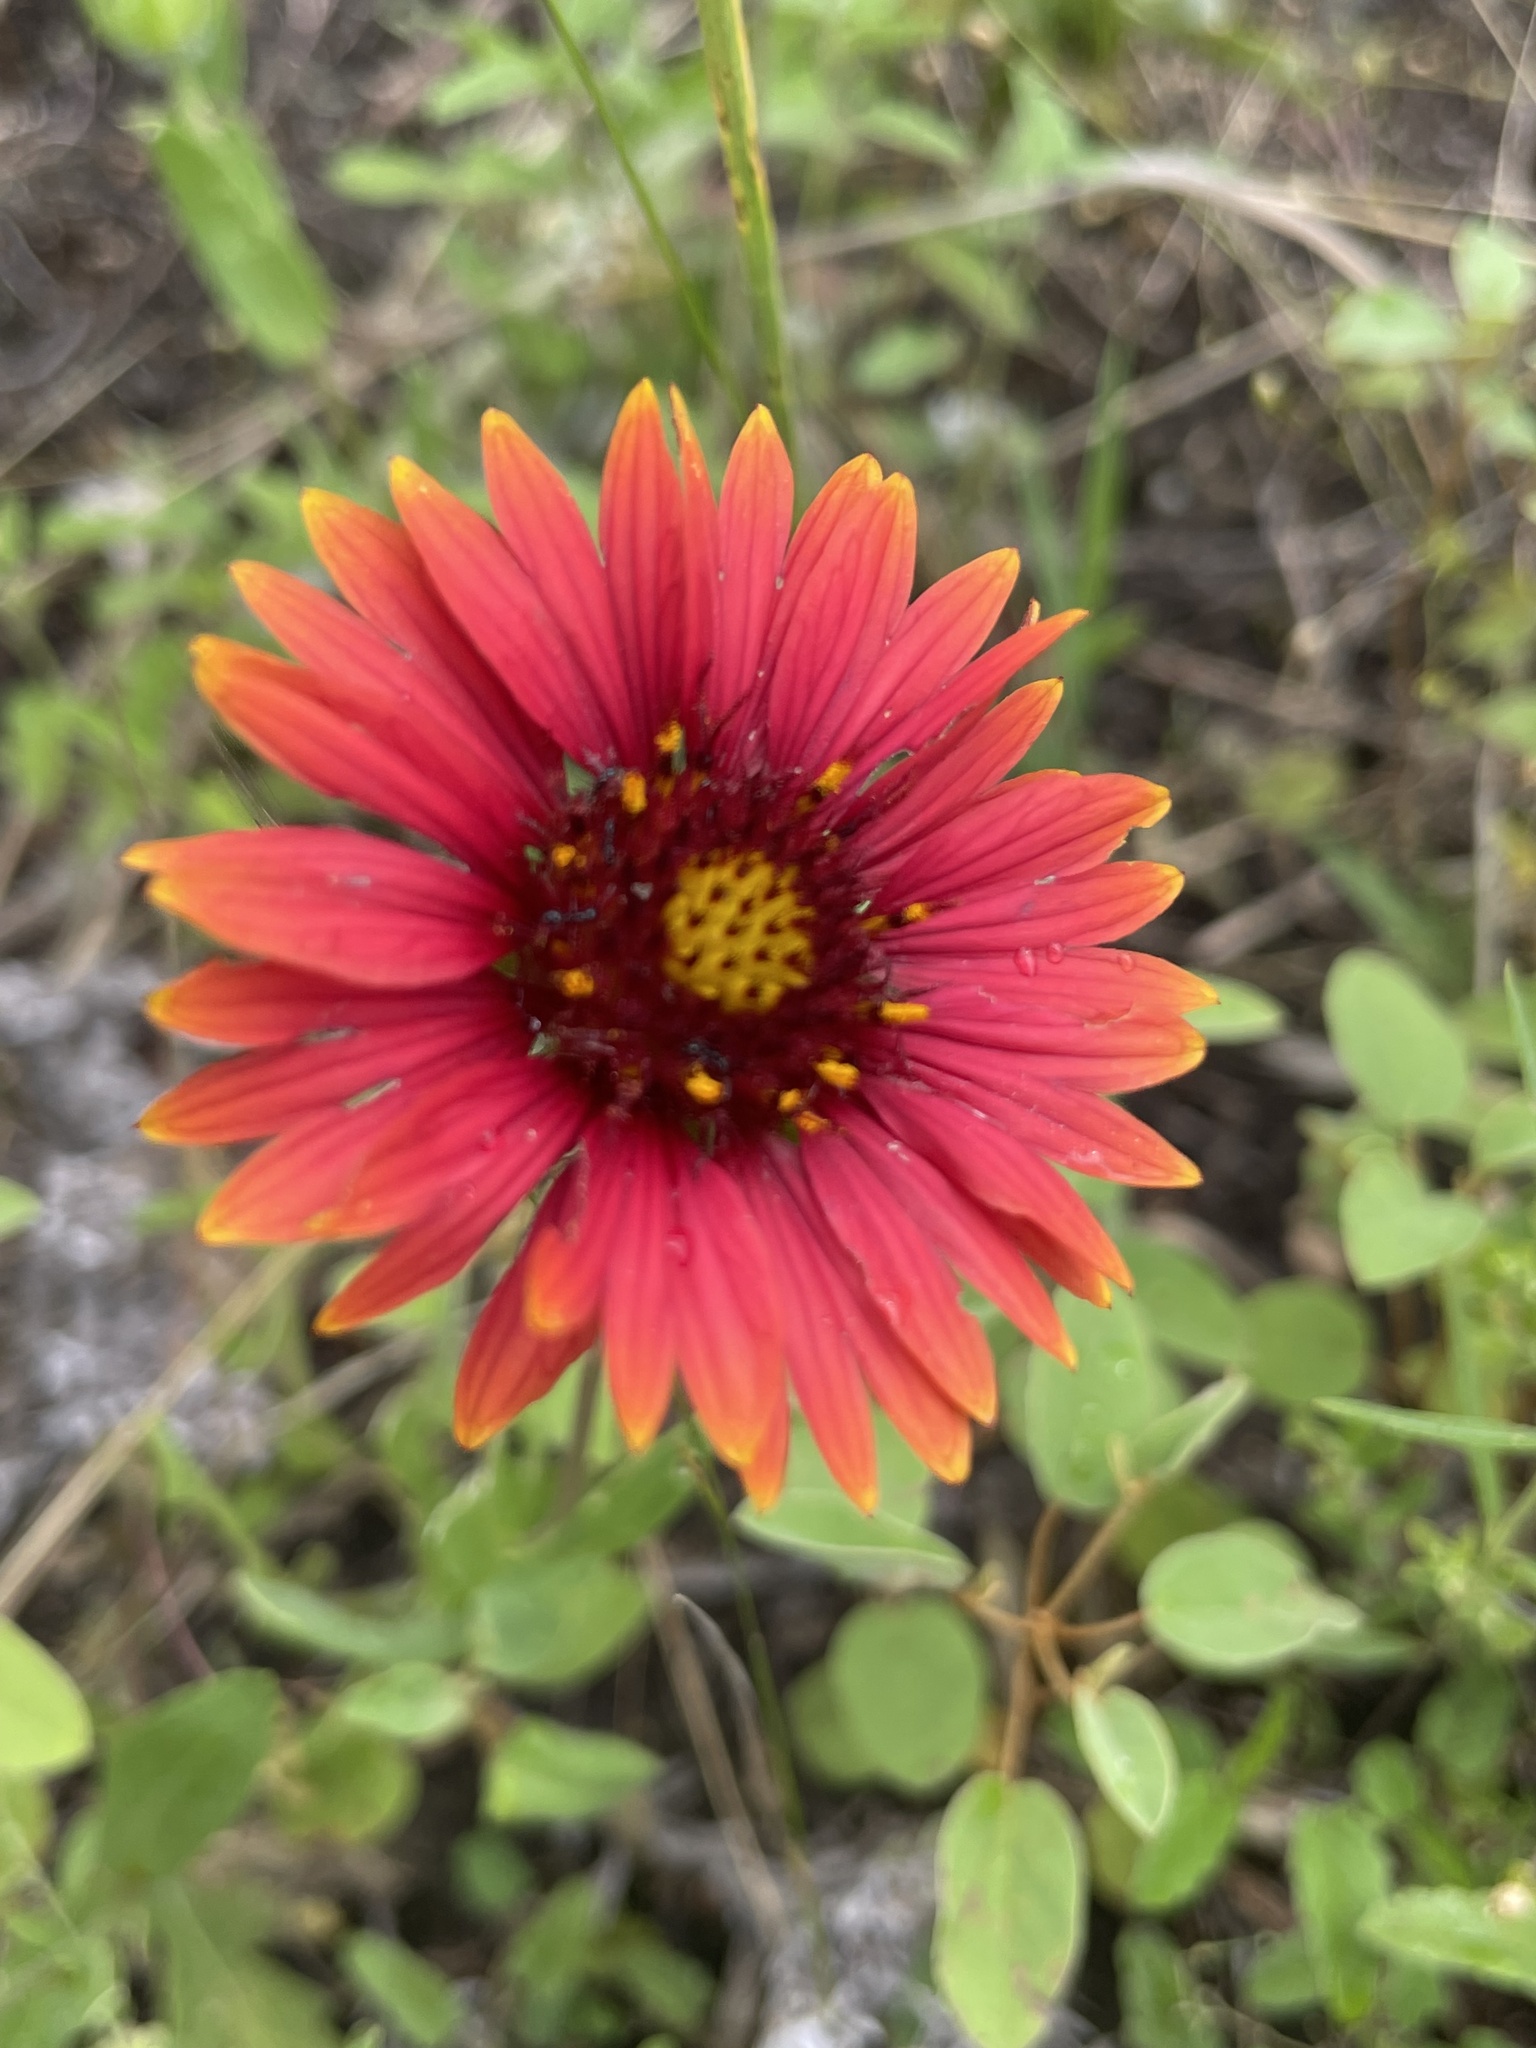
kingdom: Plantae
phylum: Tracheophyta
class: Magnoliopsida
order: Asterales
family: Asteraceae
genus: Gaillardia
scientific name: Gaillardia pulchella
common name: Firewheel
